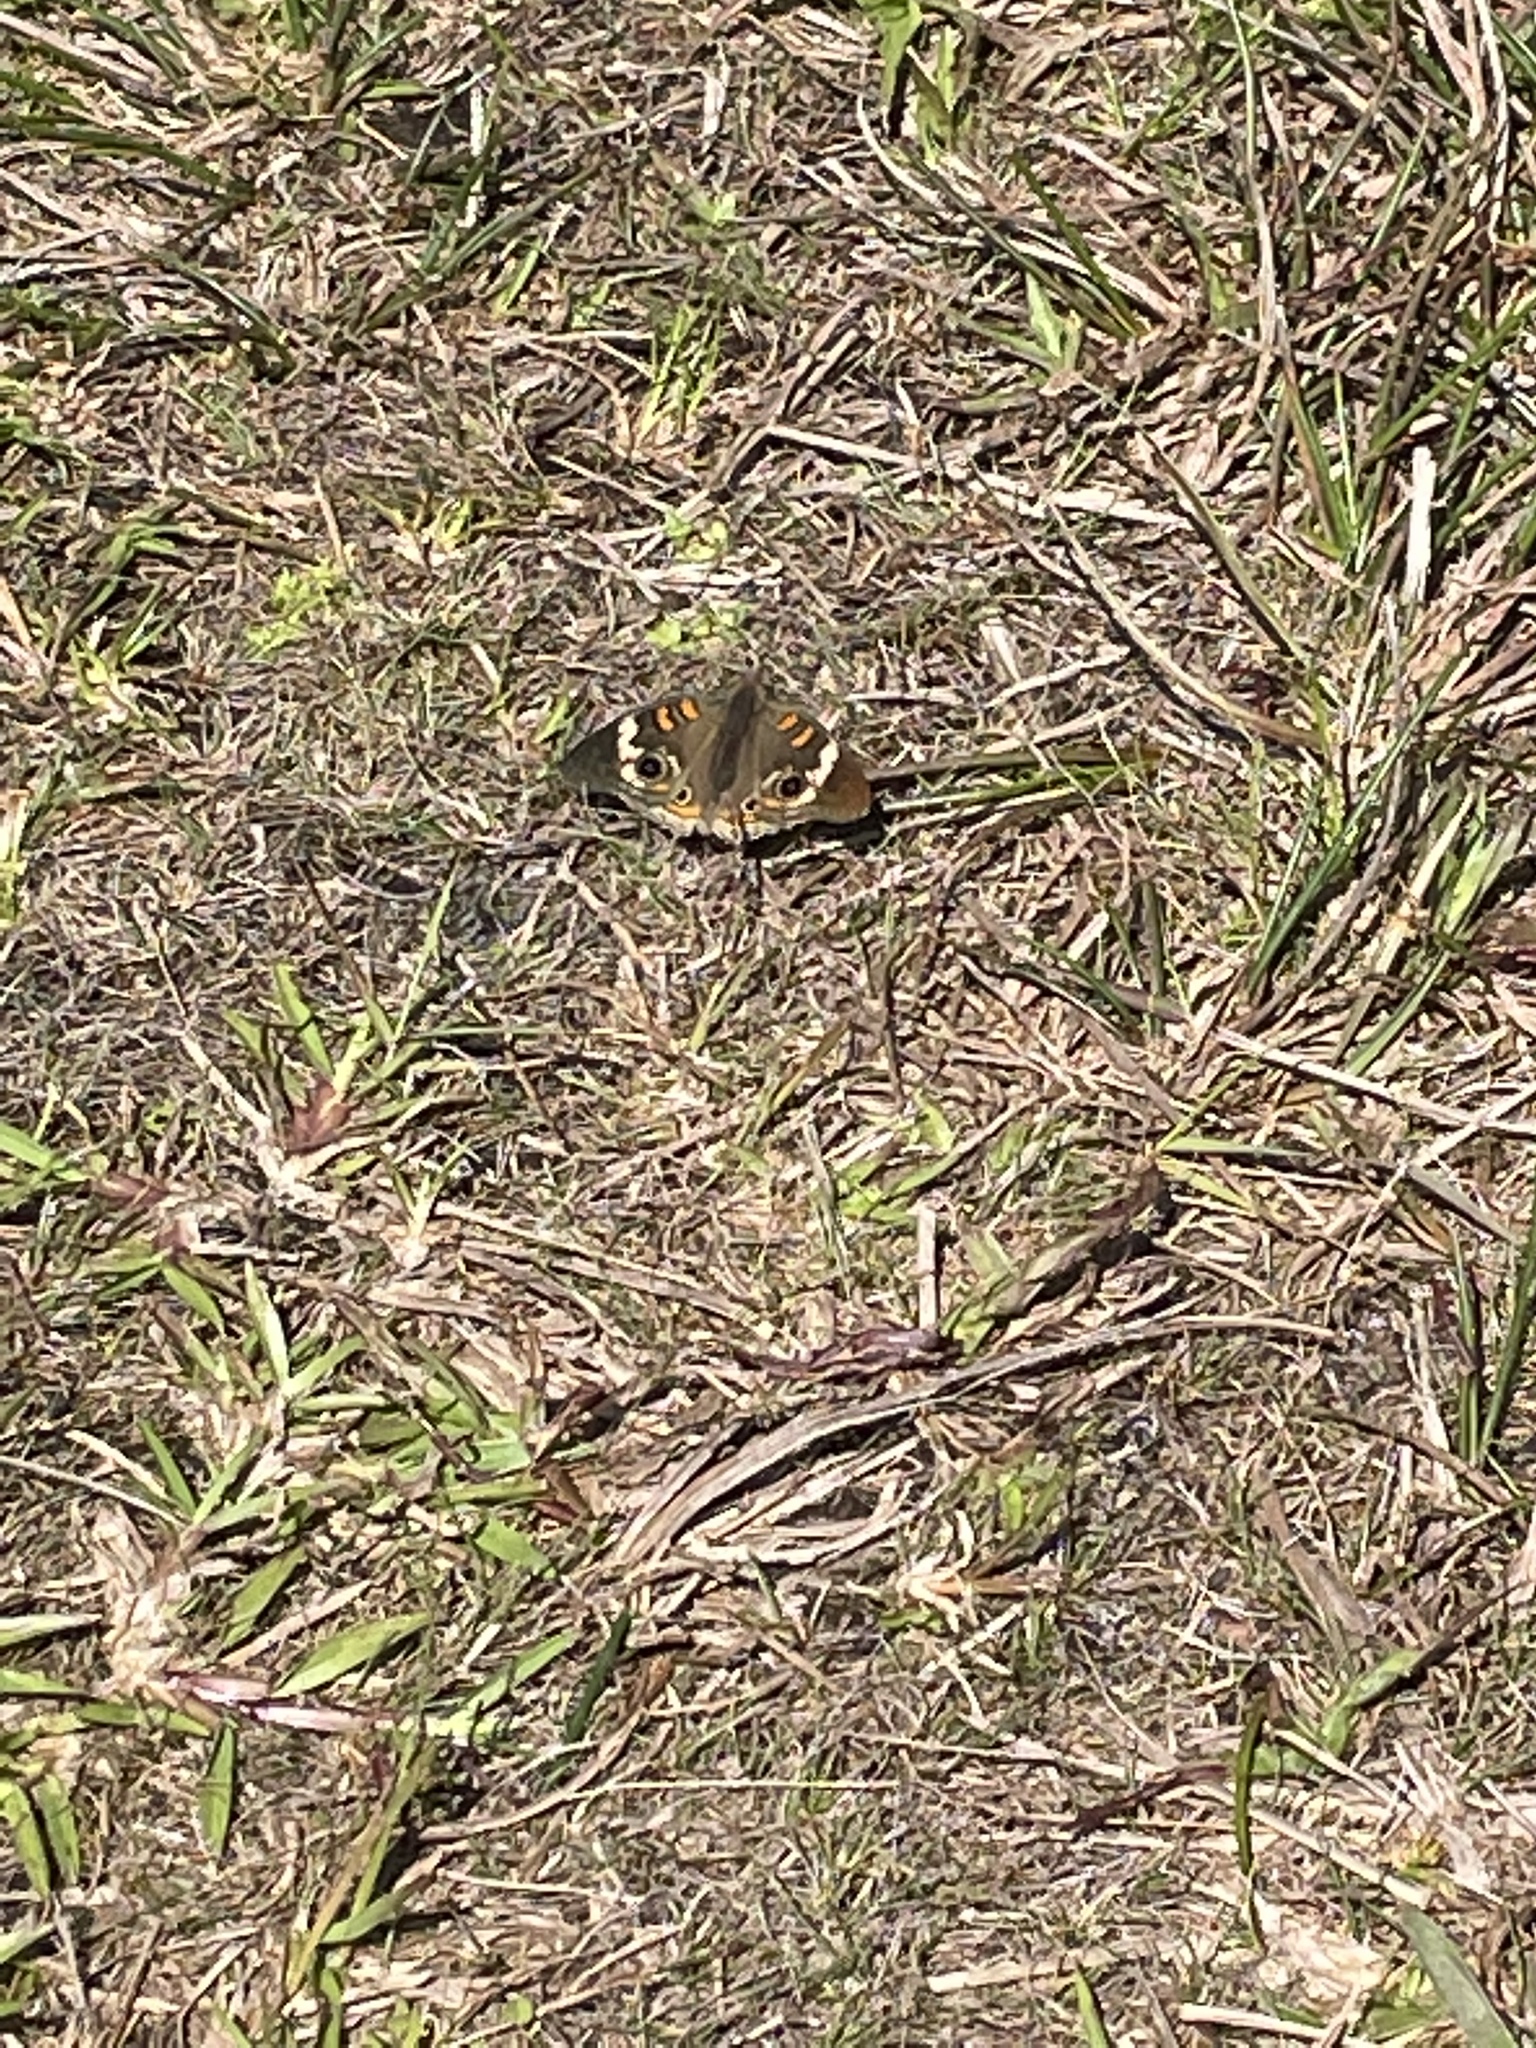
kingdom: Animalia
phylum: Arthropoda
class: Insecta
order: Lepidoptera
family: Nymphalidae
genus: Junonia
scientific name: Junonia coenia
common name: Common buckeye
